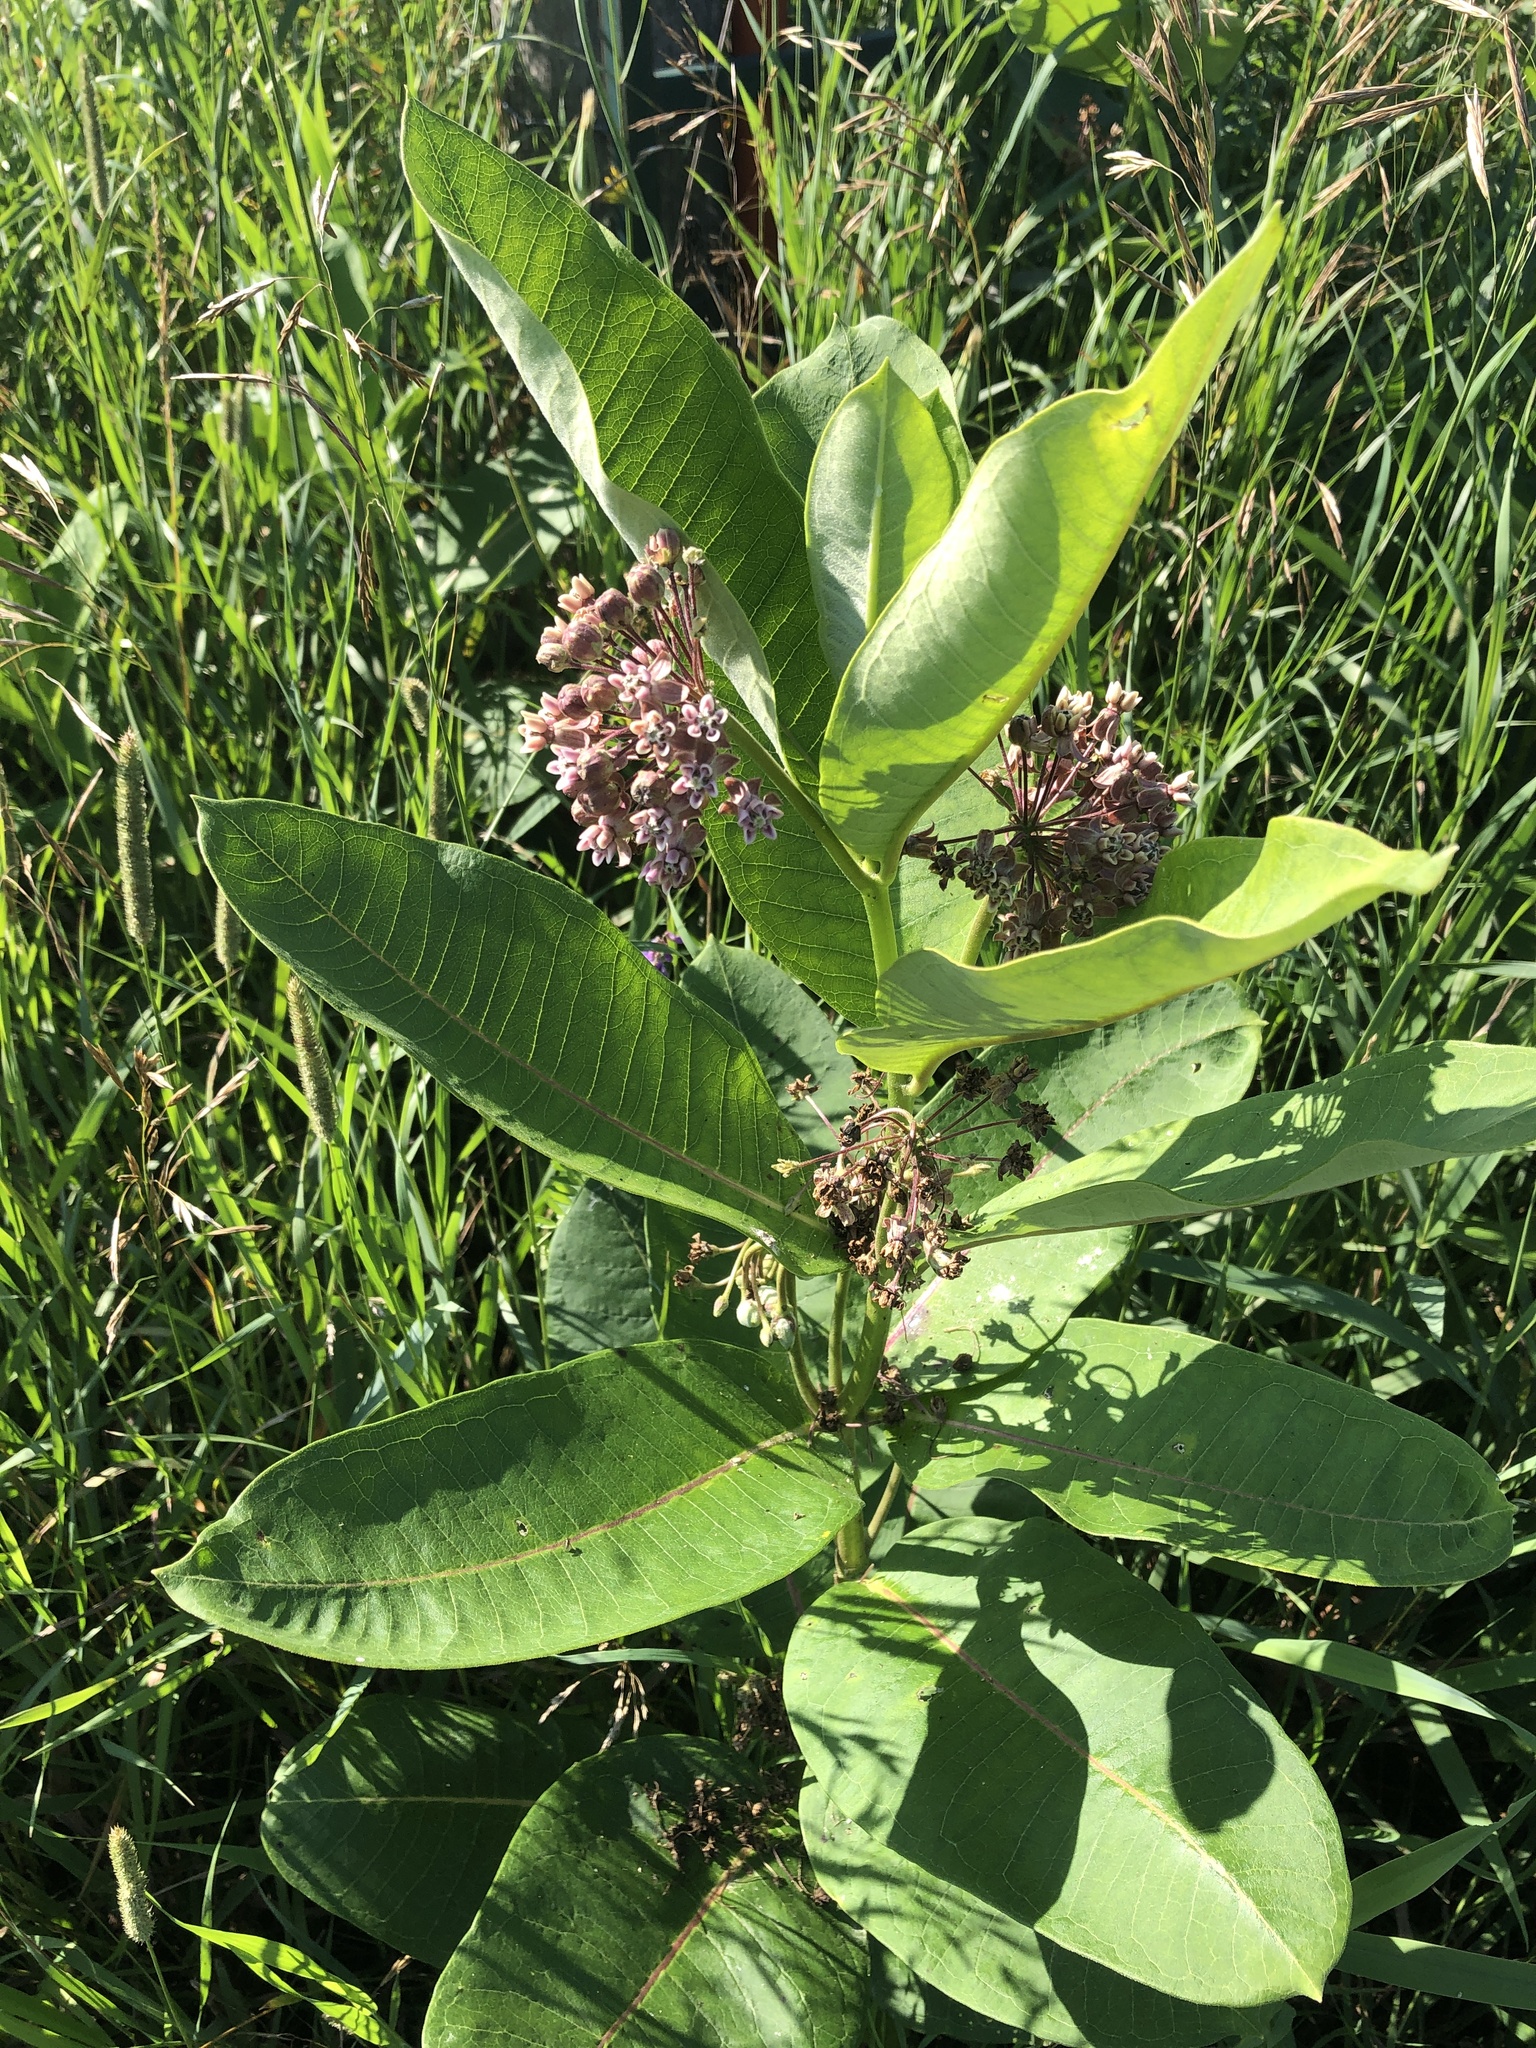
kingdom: Plantae
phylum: Tracheophyta
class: Magnoliopsida
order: Gentianales
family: Apocynaceae
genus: Asclepias
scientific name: Asclepias syriaca
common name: Common milkweed
